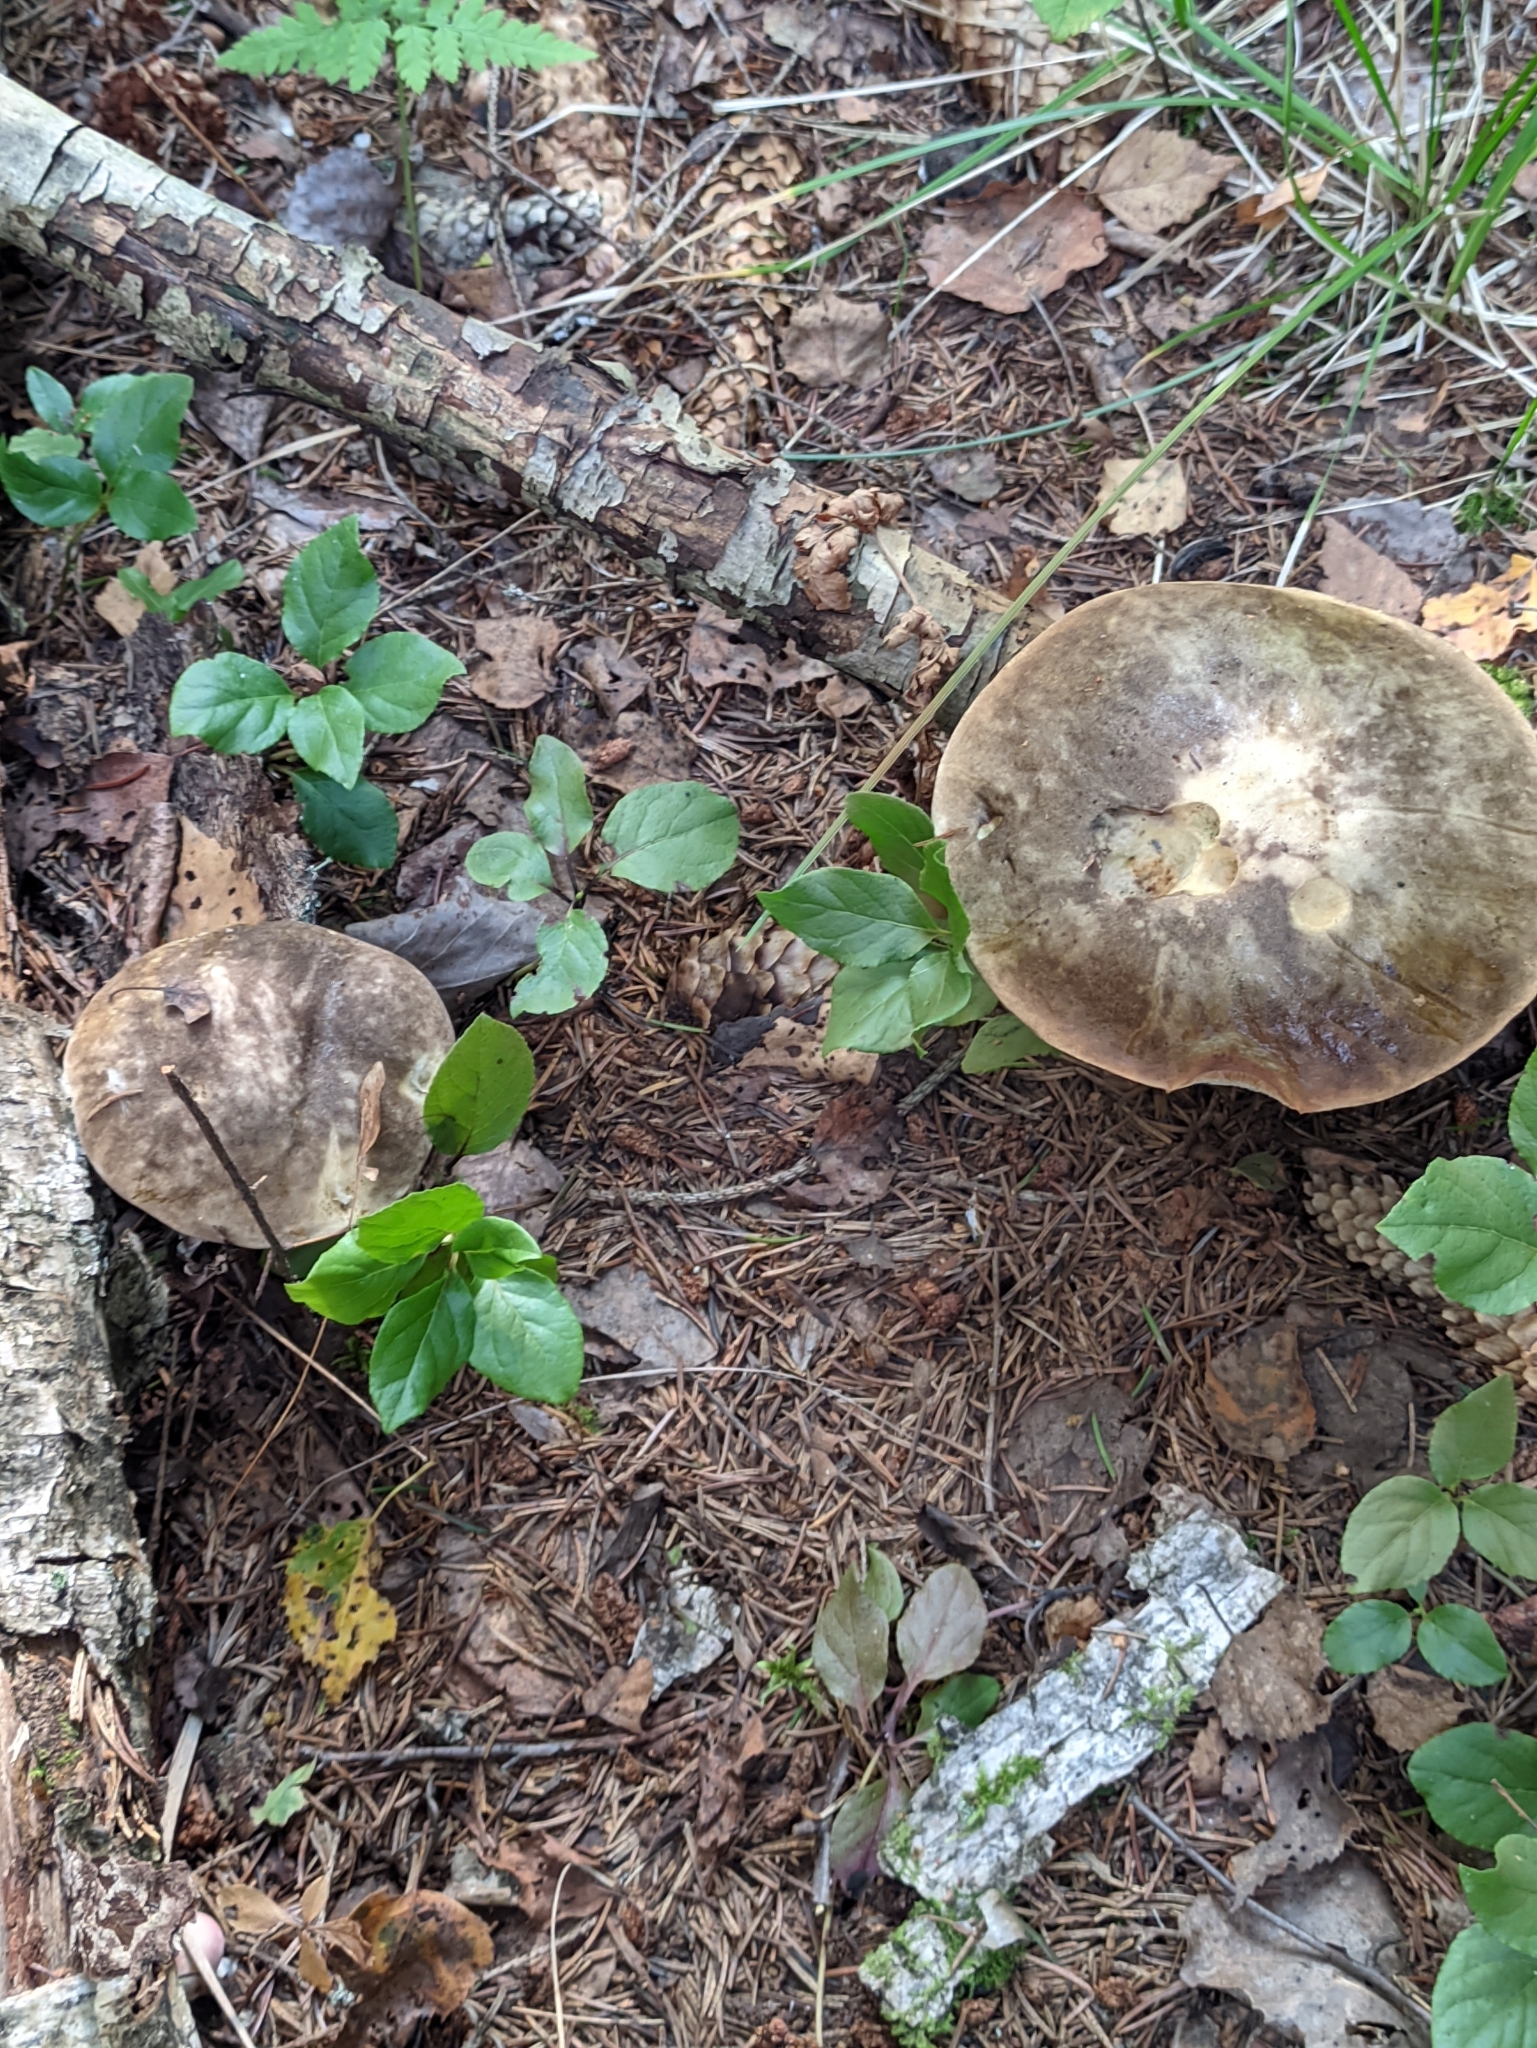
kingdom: Fungi
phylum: Basidiomycota
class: Agaricomycetes
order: Boletales
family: Boletaceae
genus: Leccinum
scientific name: Leccinum variicolor
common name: Mottled bolete
